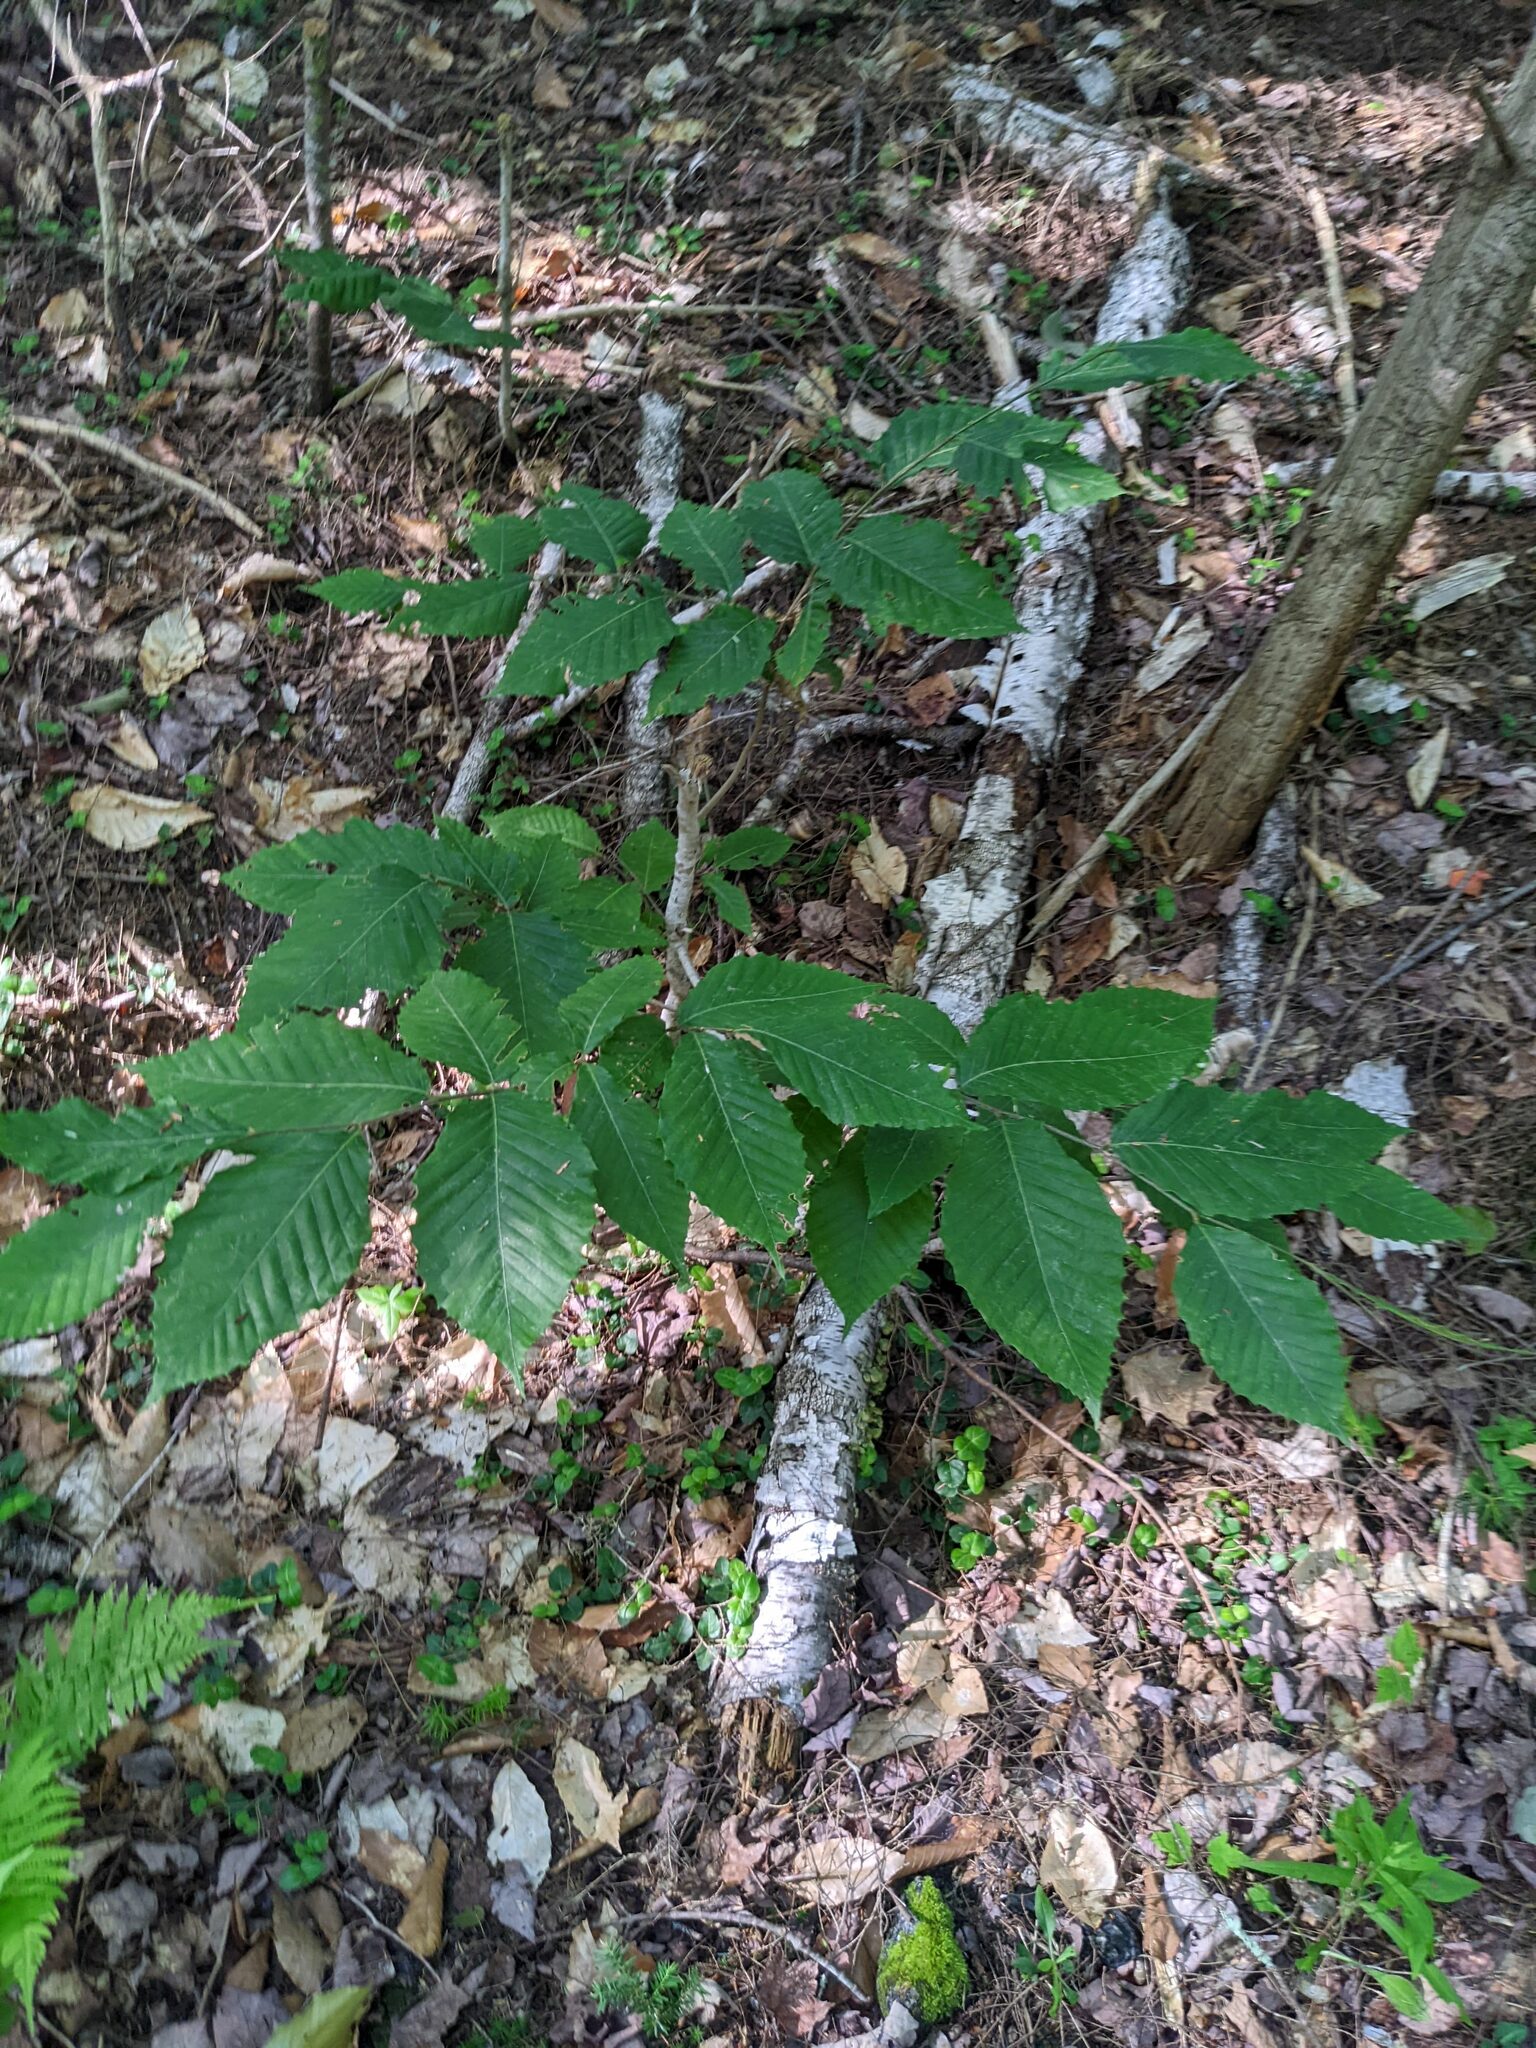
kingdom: Plantae
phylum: Tracheophyta
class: Magnoliopsida
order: Fagales
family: Fagaceae
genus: Fagus
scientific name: Fagus grandifolia
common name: American beech
